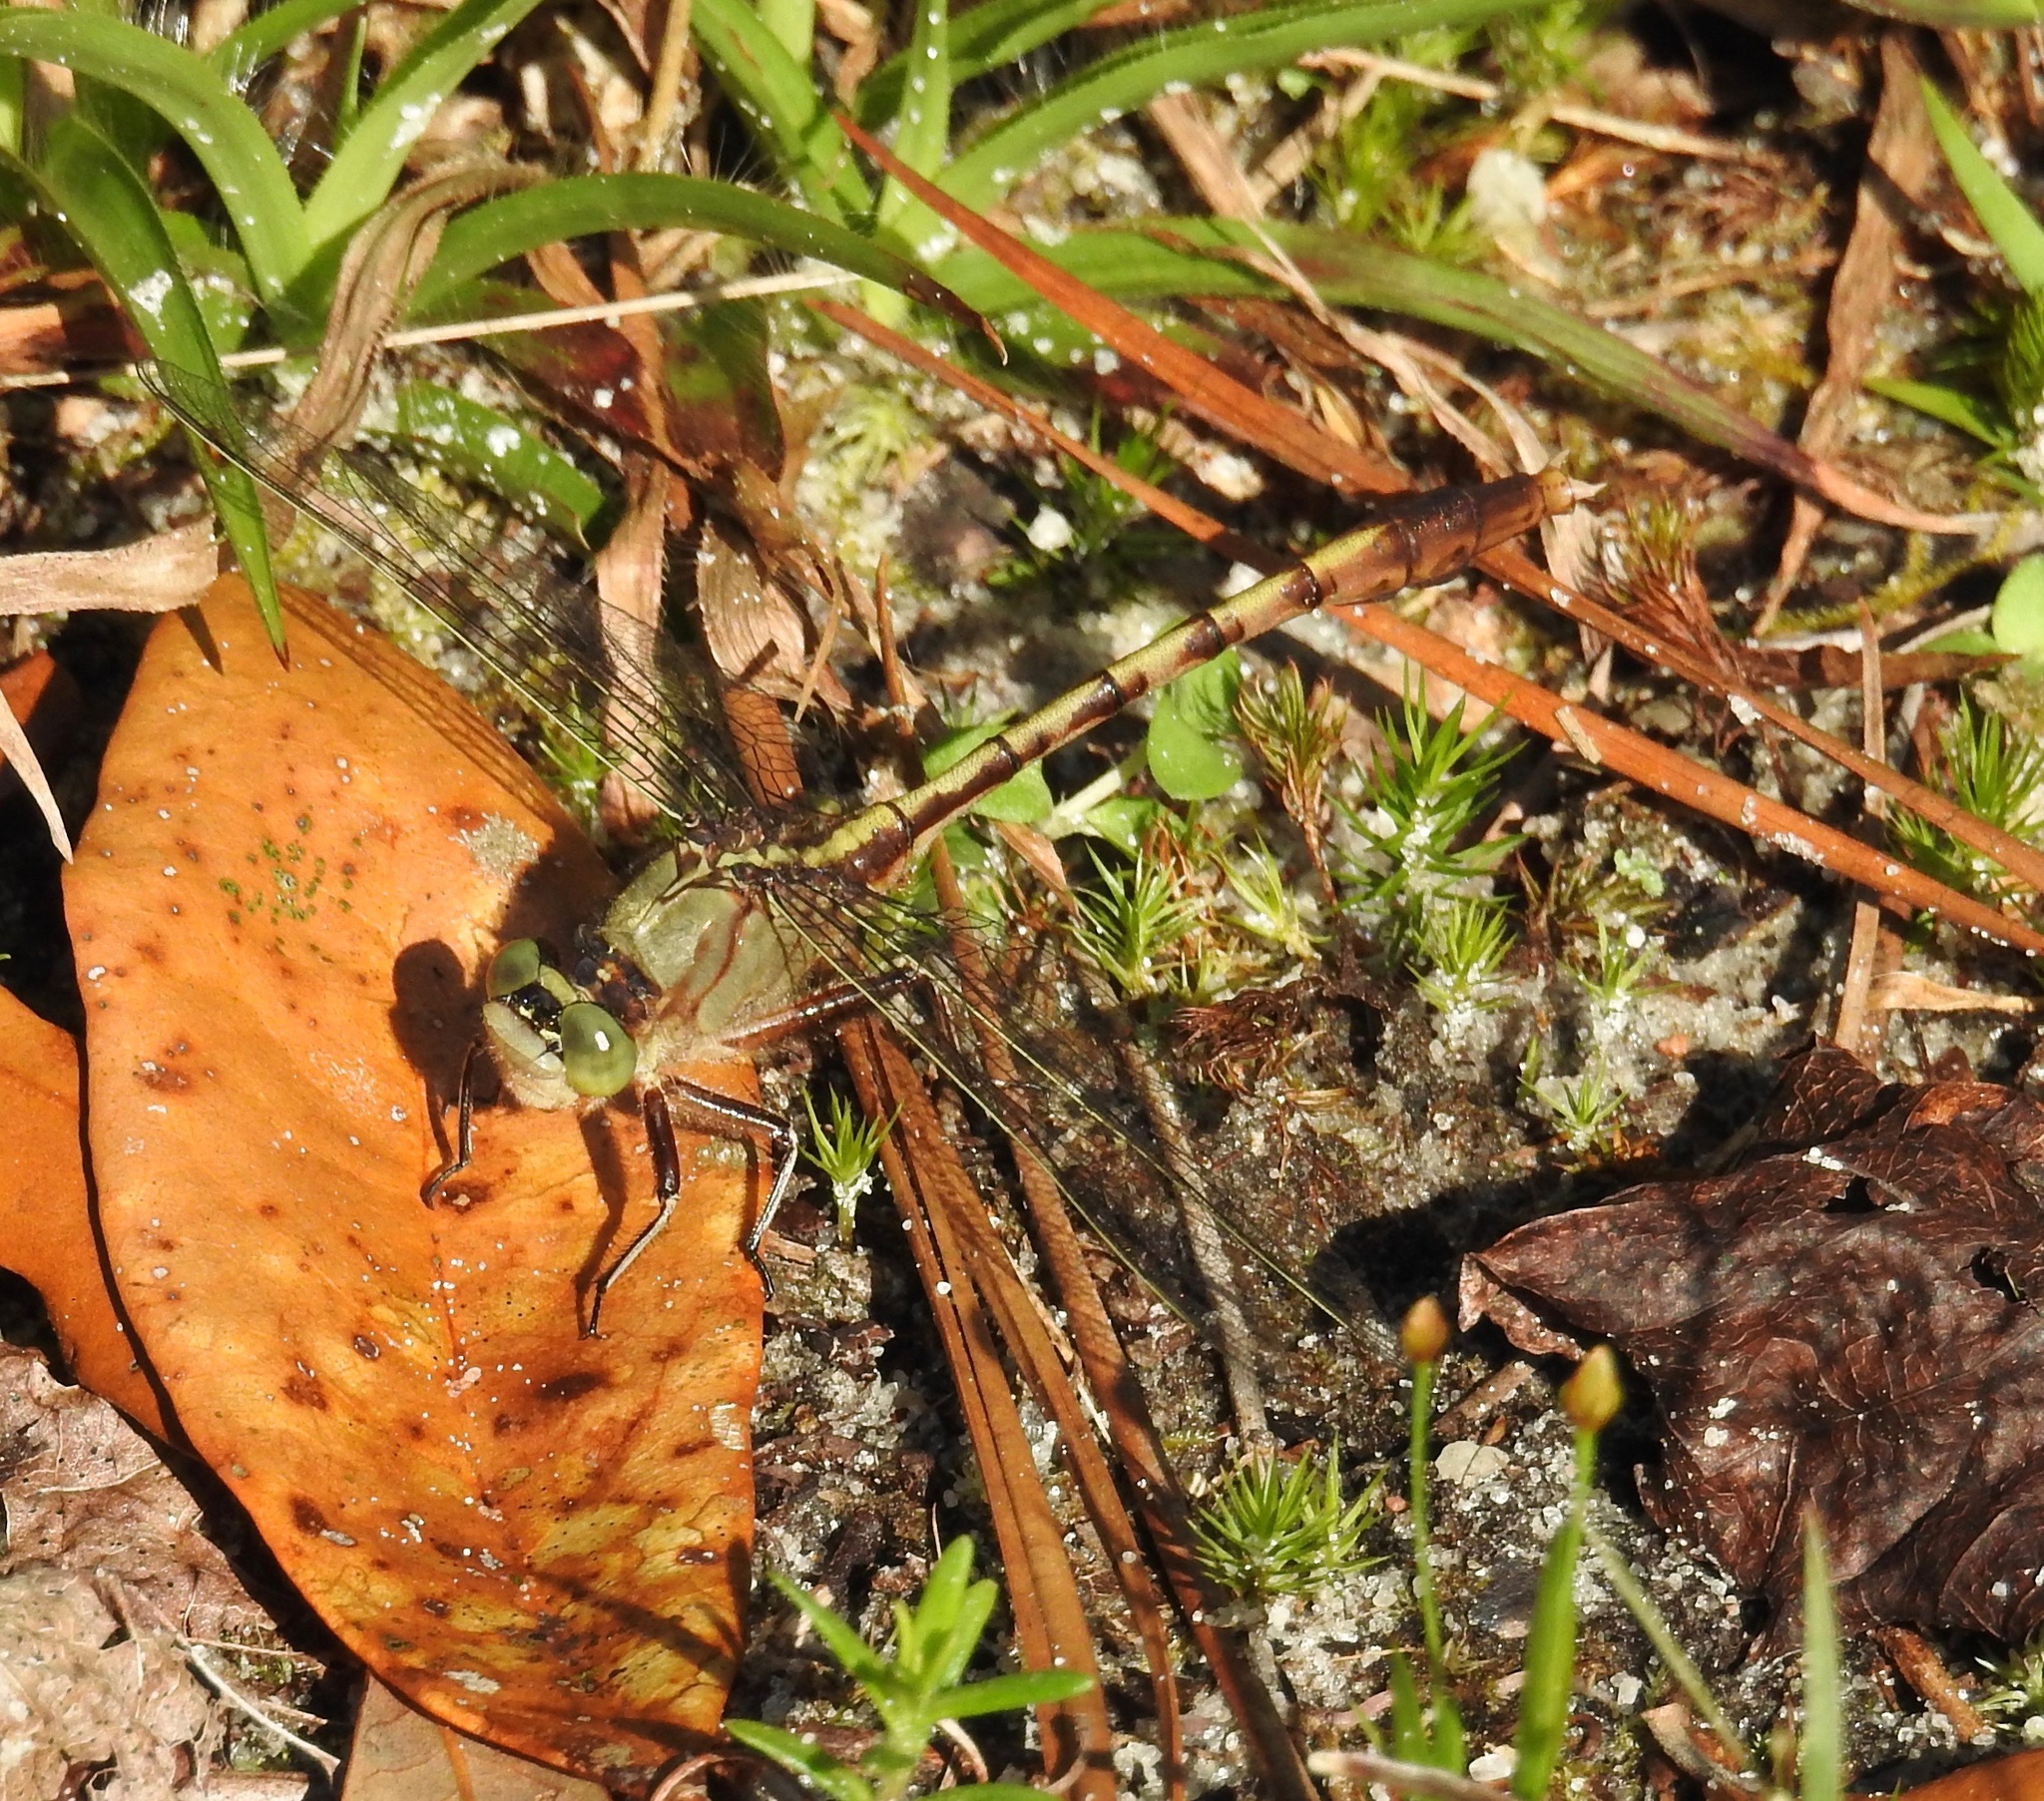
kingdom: Animalia
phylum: Arthropoda
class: Insecta
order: Odonata
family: Gomphidae
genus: Arigomphus
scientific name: Arigomphus pallidus
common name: Gray-green clubtail
